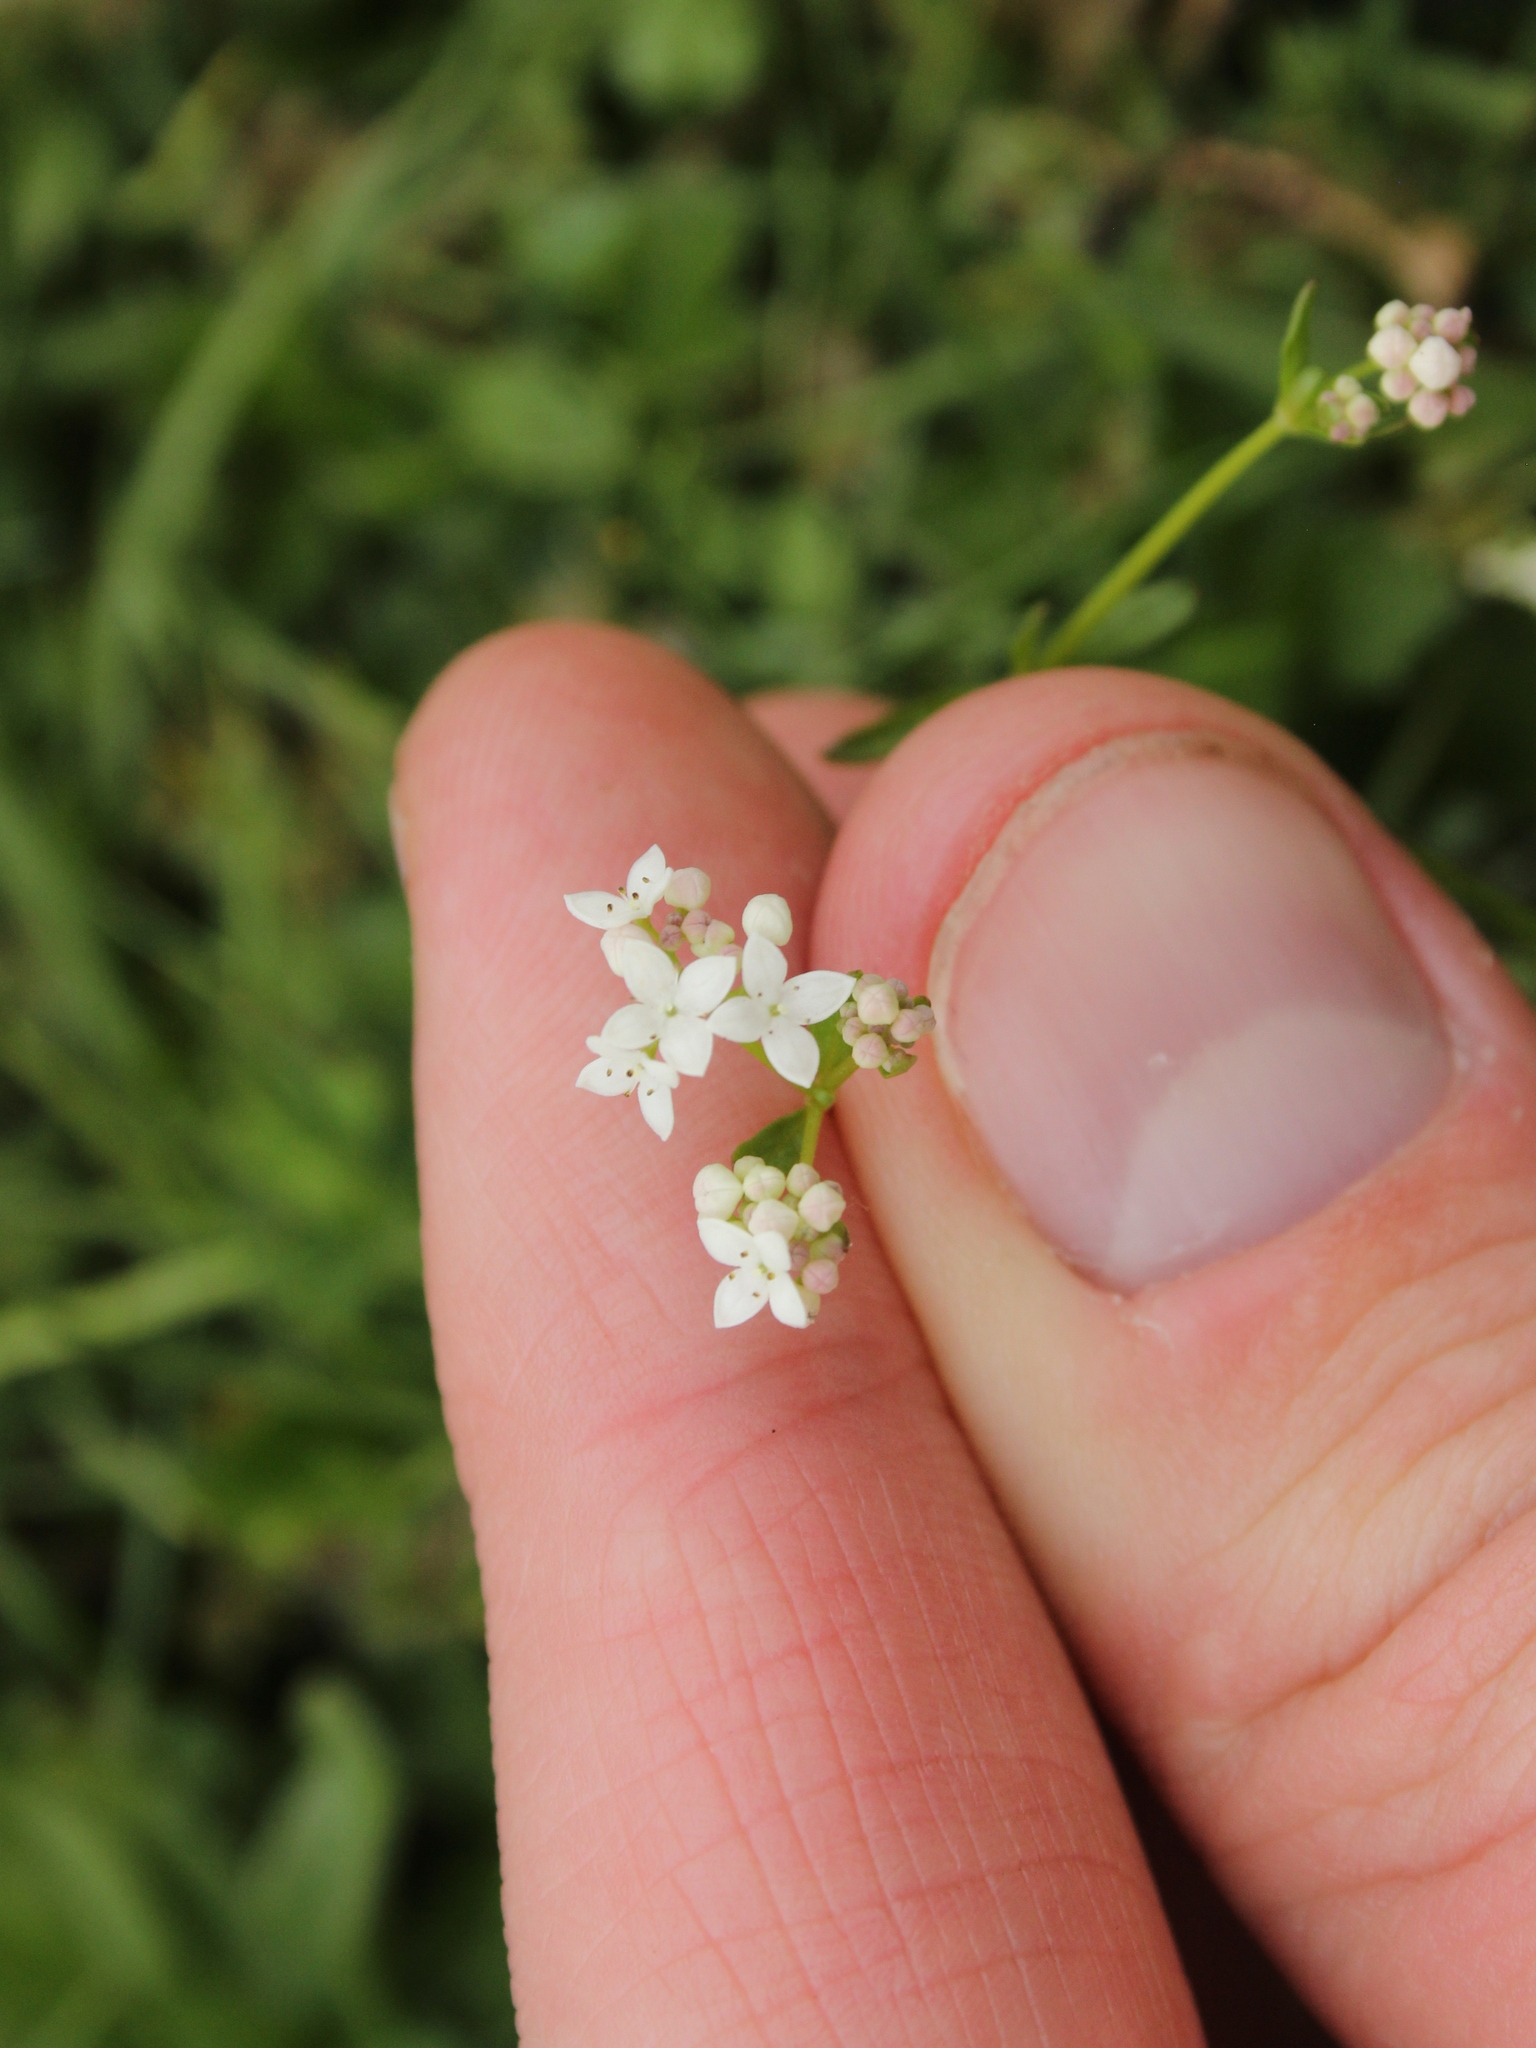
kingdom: Plantae
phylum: Tracheophyta
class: Magnoliopsida
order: Gentianales
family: Rubiaceae
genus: Galium
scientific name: Galium palustre
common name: Common marsh-bedstraw
